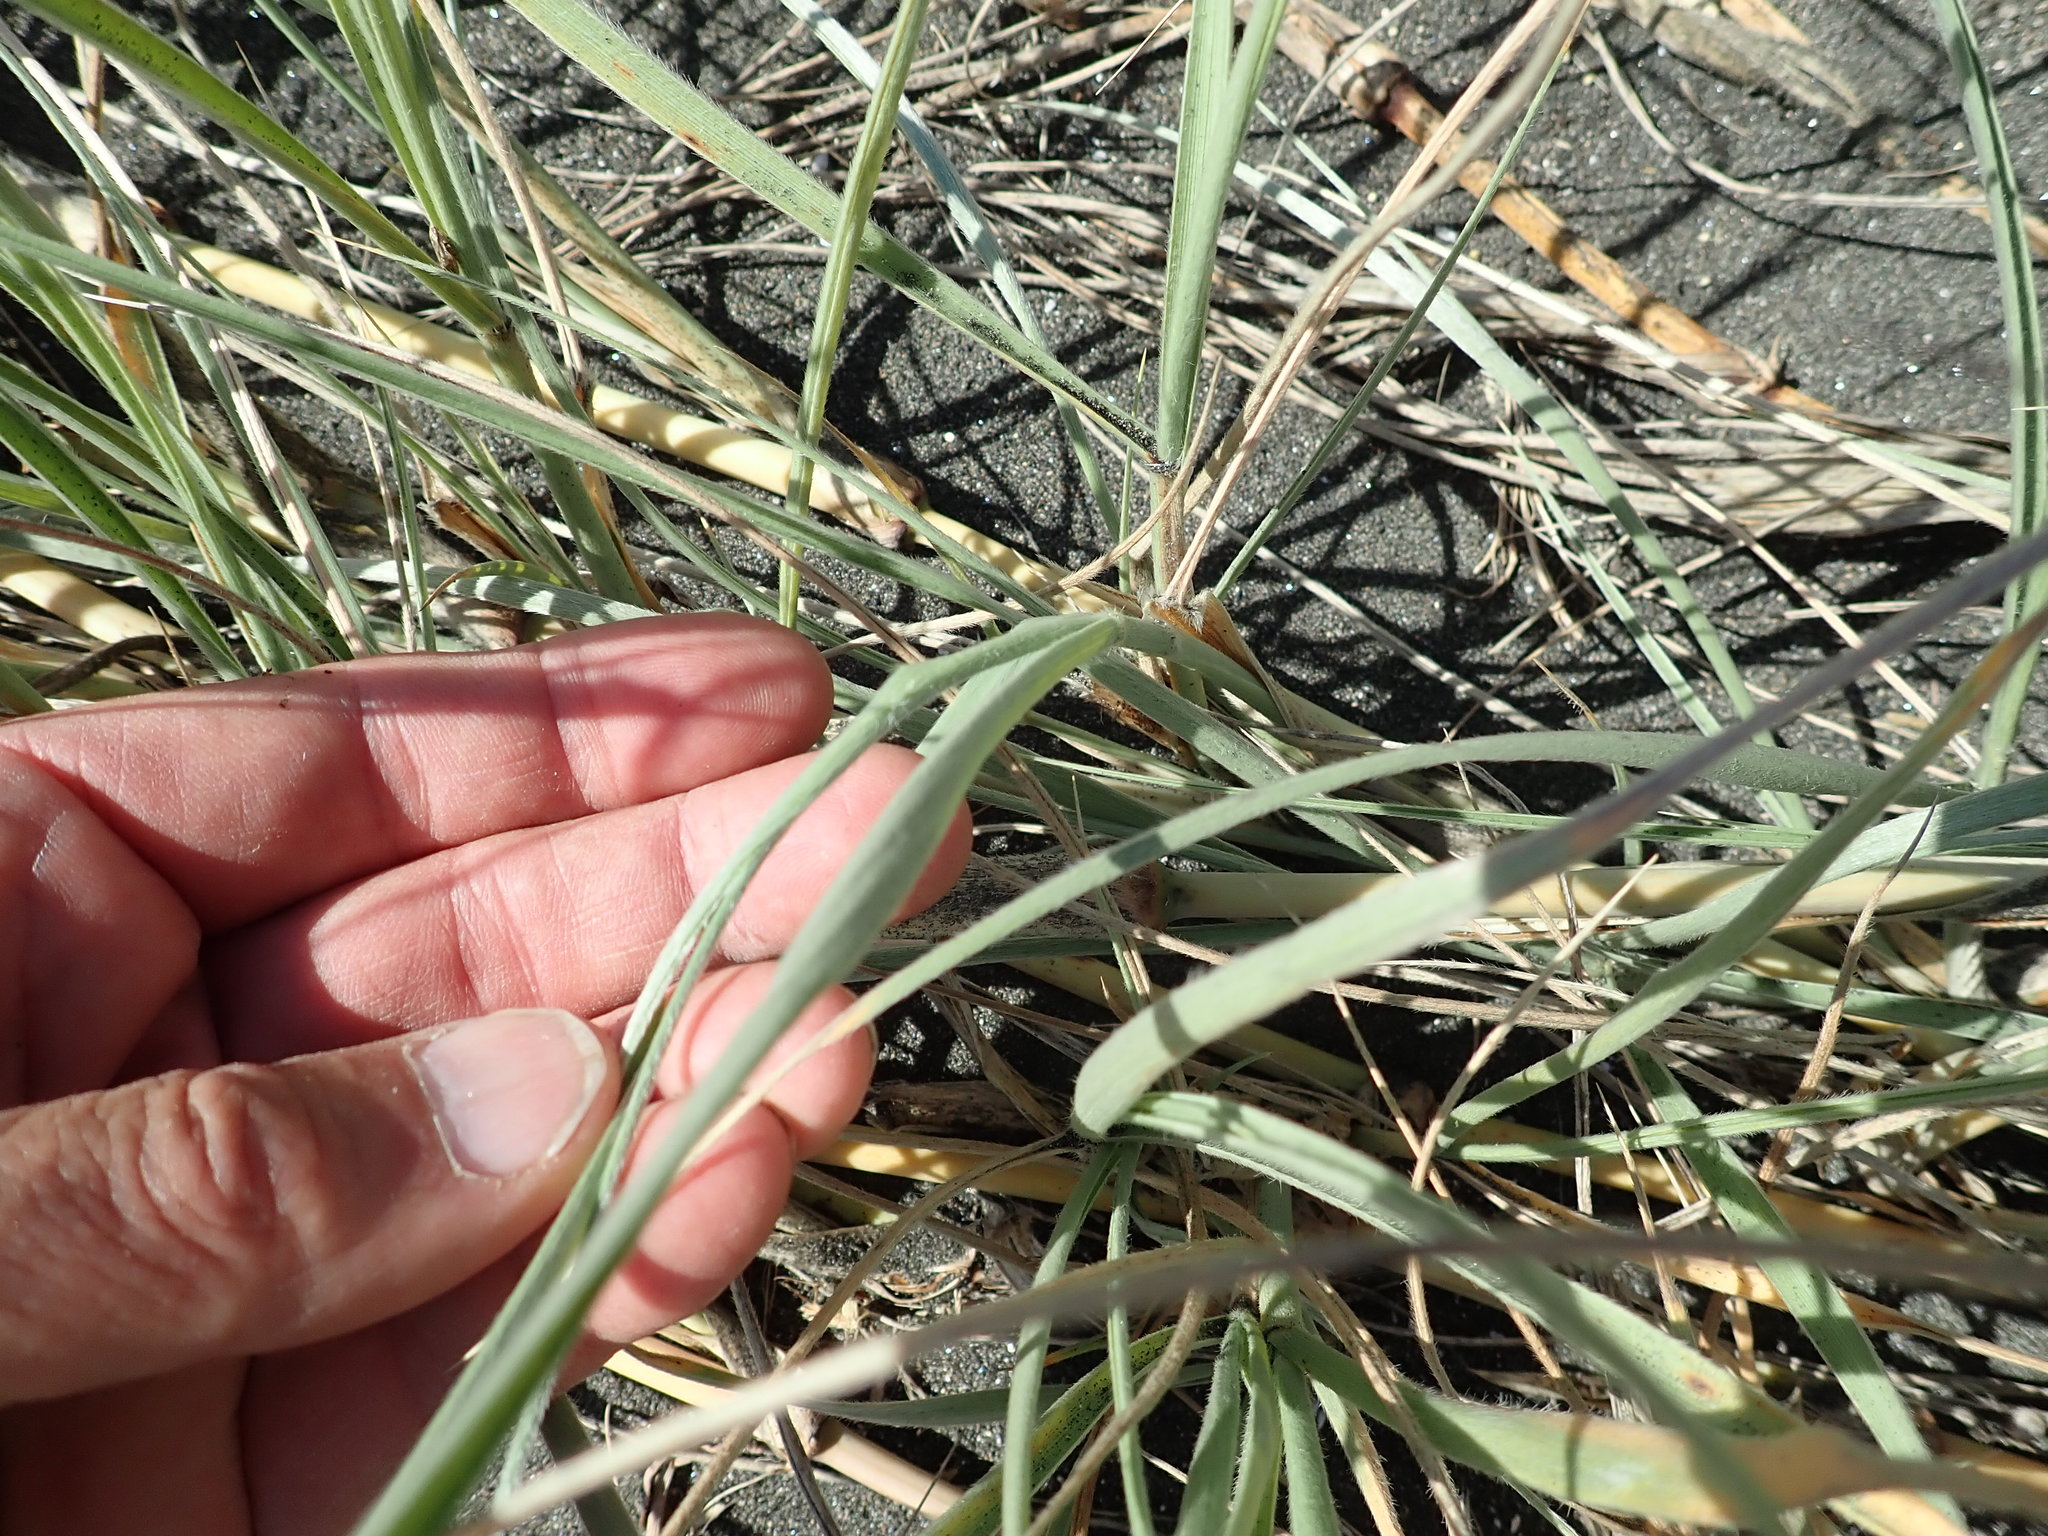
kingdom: Plantae
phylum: Tracheophyta
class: Liliopsida
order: Poales
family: Poaceae
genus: Spinifex
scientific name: Spinifex sericeus
